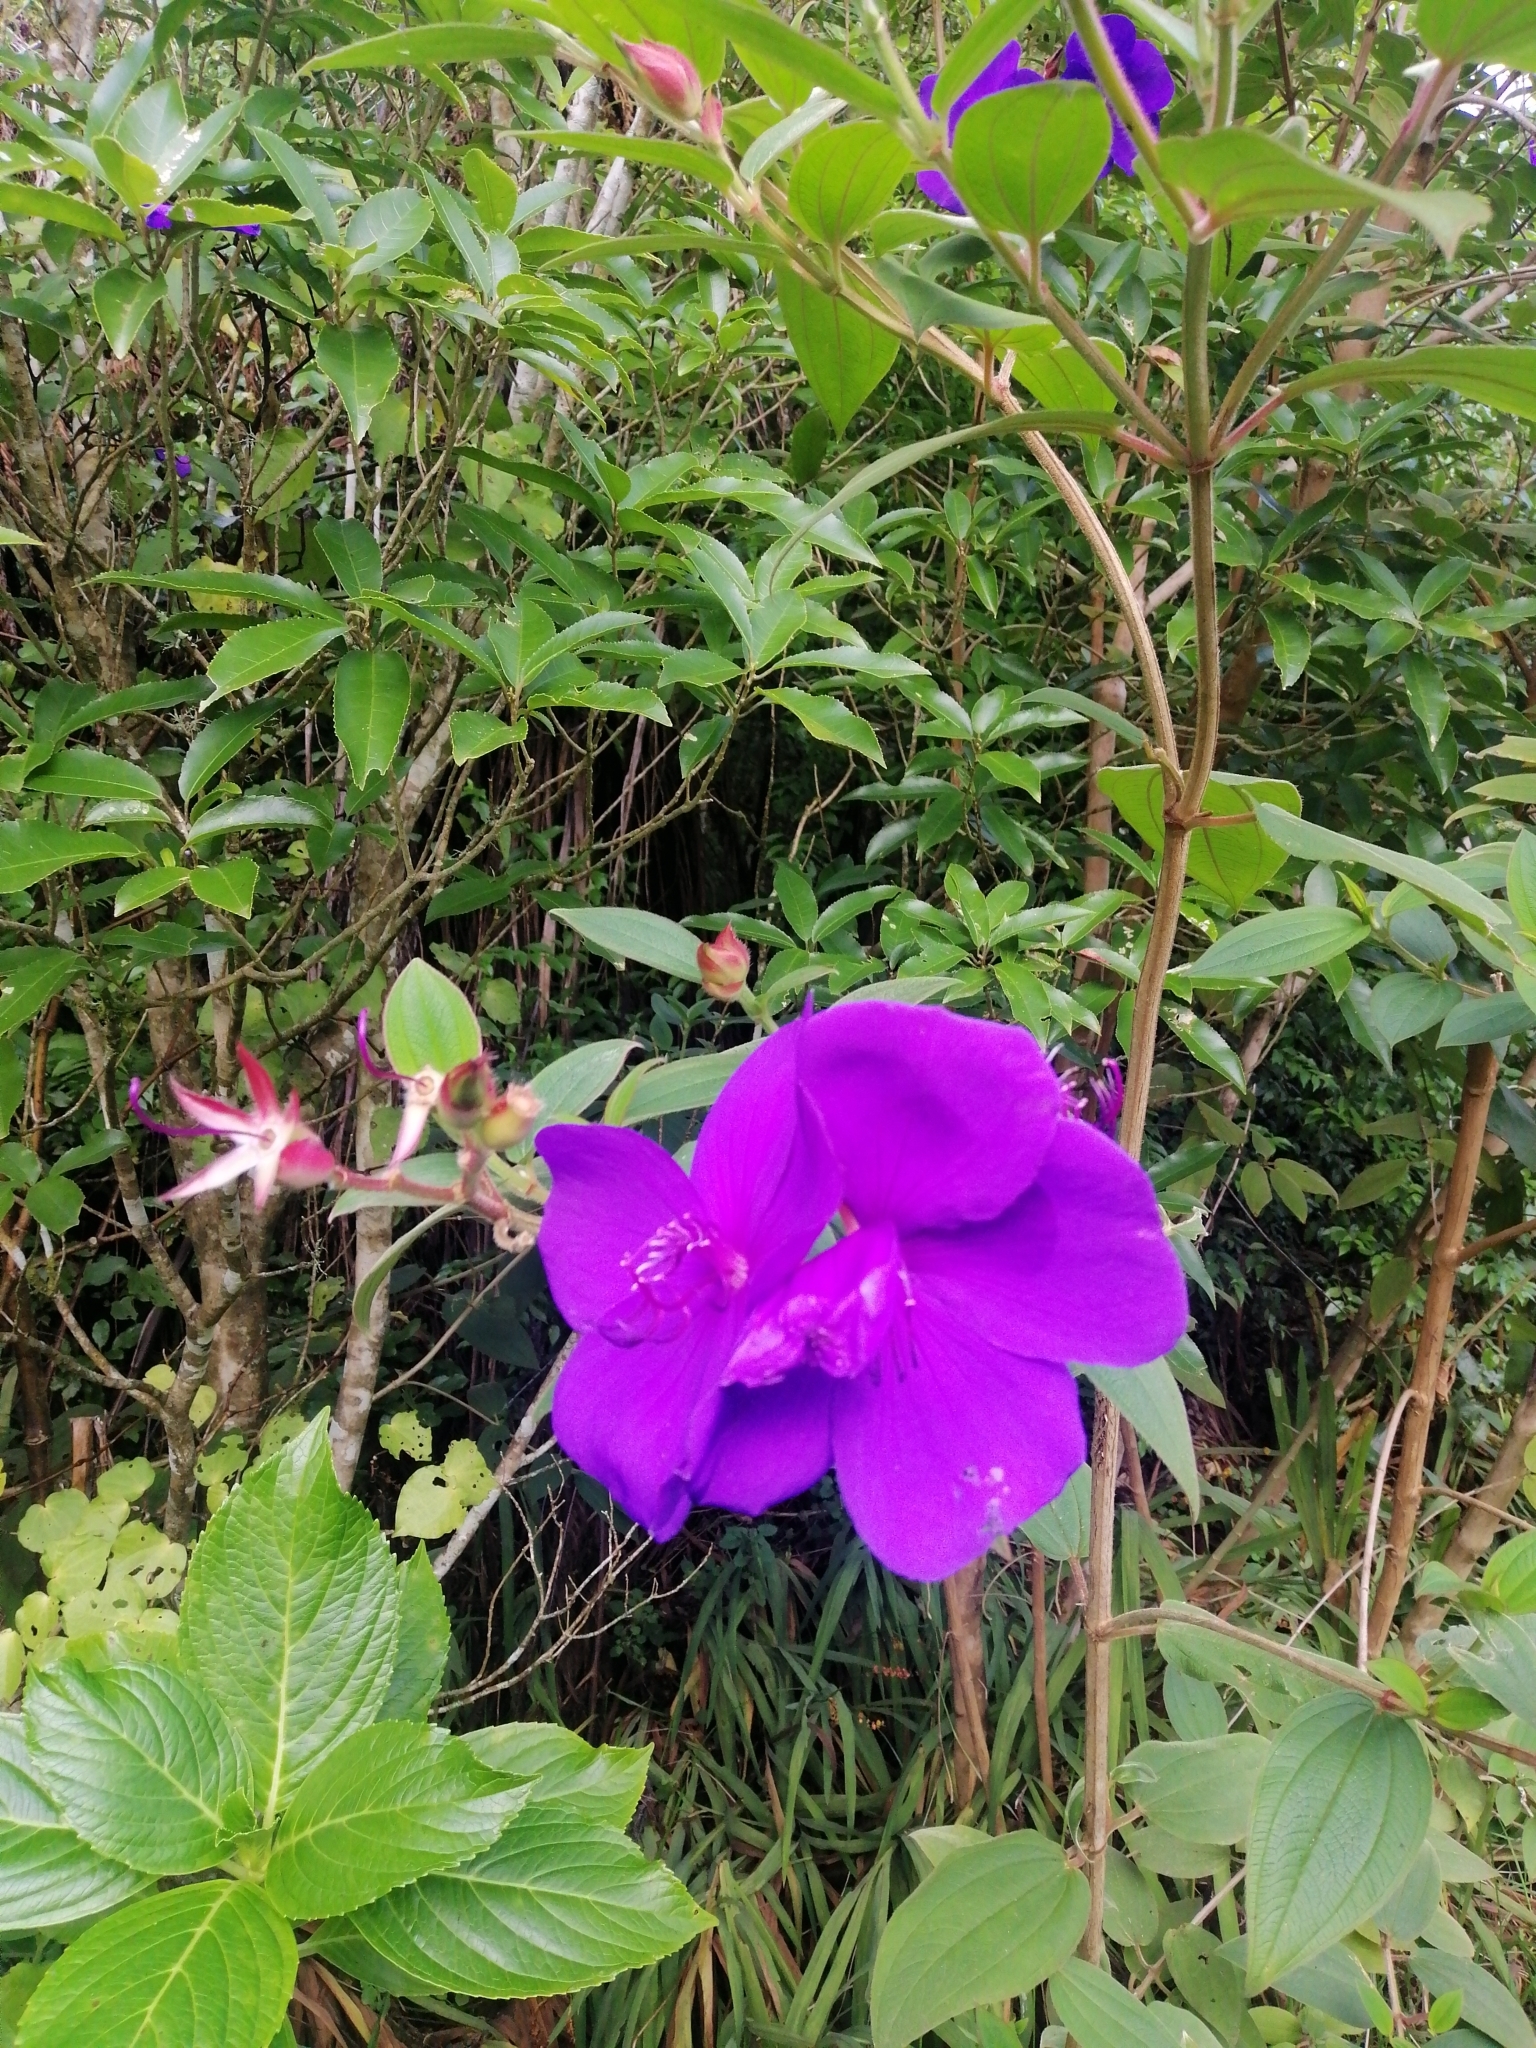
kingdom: Plantae
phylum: Tracheophyta
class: Magnoliopsida
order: Myrtales
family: Melastomataceae
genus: Pleroma
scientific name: Pleroma urvilleanum
